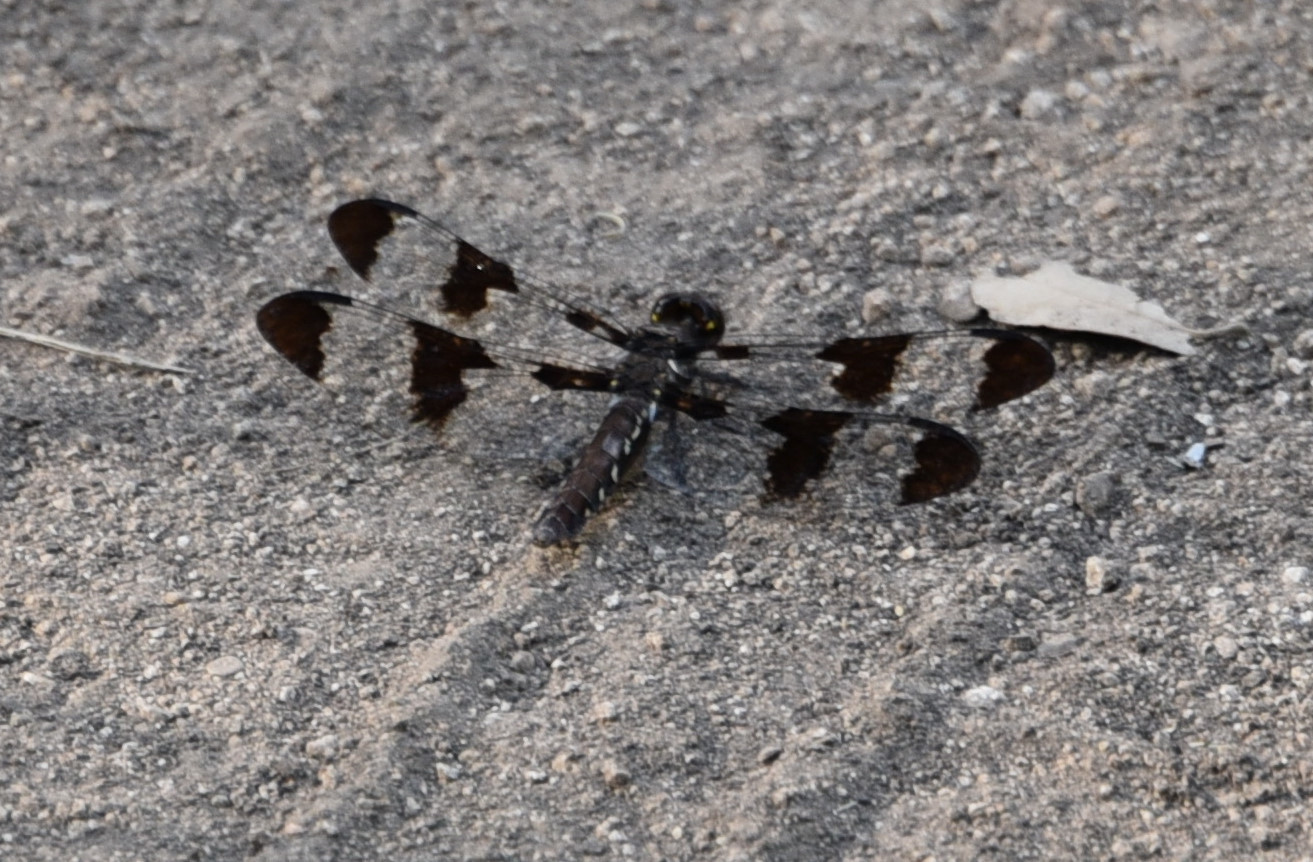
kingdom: Animalia
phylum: Arthropoda
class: Insecta
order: Odonata
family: Libellulidae
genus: Plathemis
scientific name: Plathemis lydia
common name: Common whitetail
